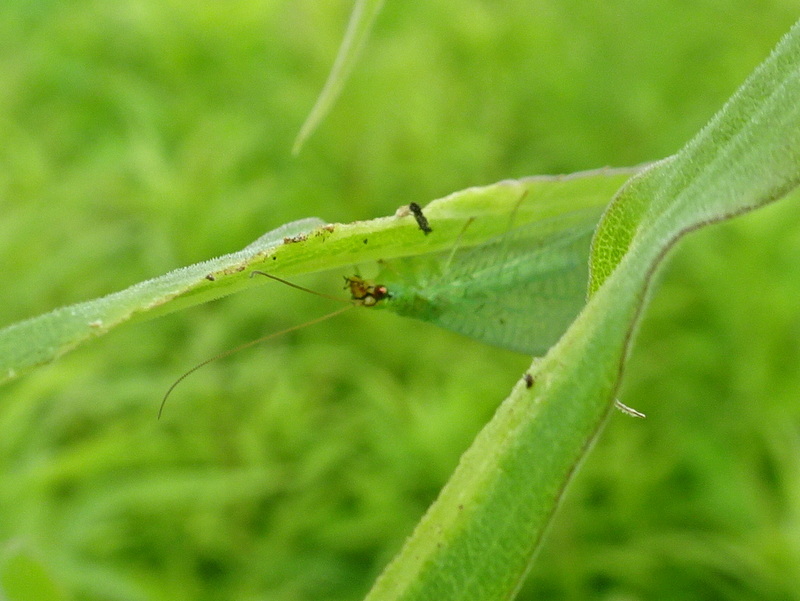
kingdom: Animalia
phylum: Arthropoda
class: Insecta
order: Neuroptera
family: Chrysopidae
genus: Chrysopa
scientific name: Chrysopa oculata
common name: Golden-eyed lacewing
